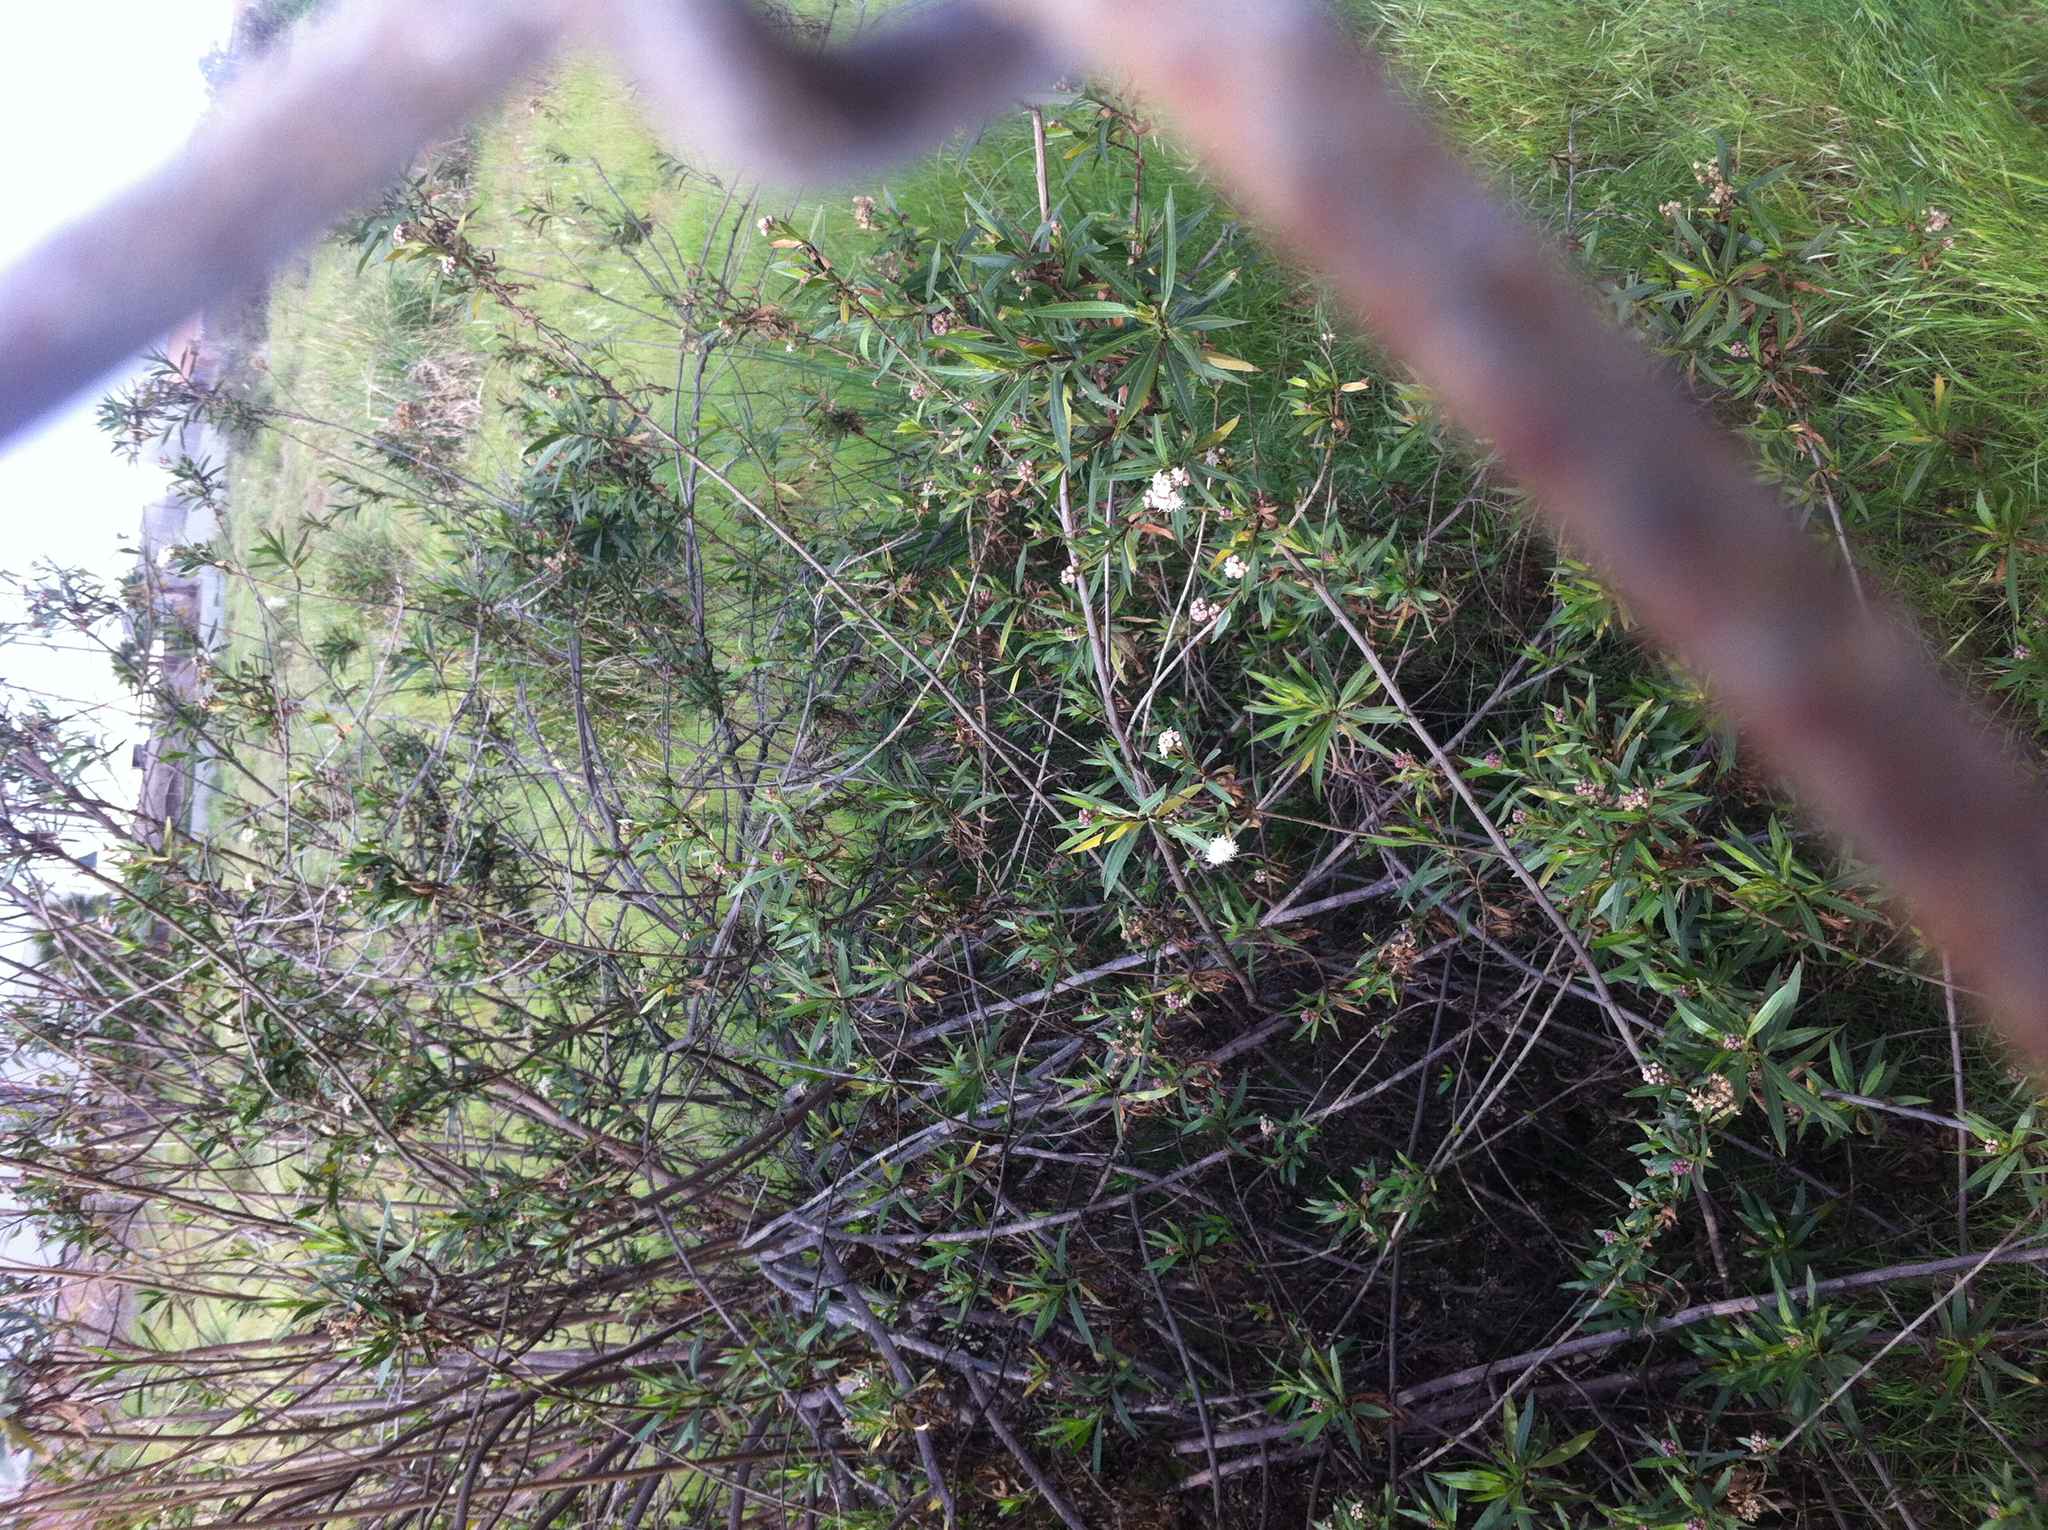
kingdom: Plantae
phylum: Tracheophyta
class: Magnoliopsida
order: Asterales
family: Asteraceae
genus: Baccharis
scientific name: Baccharis salicifolia
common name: Sticky baccharis
